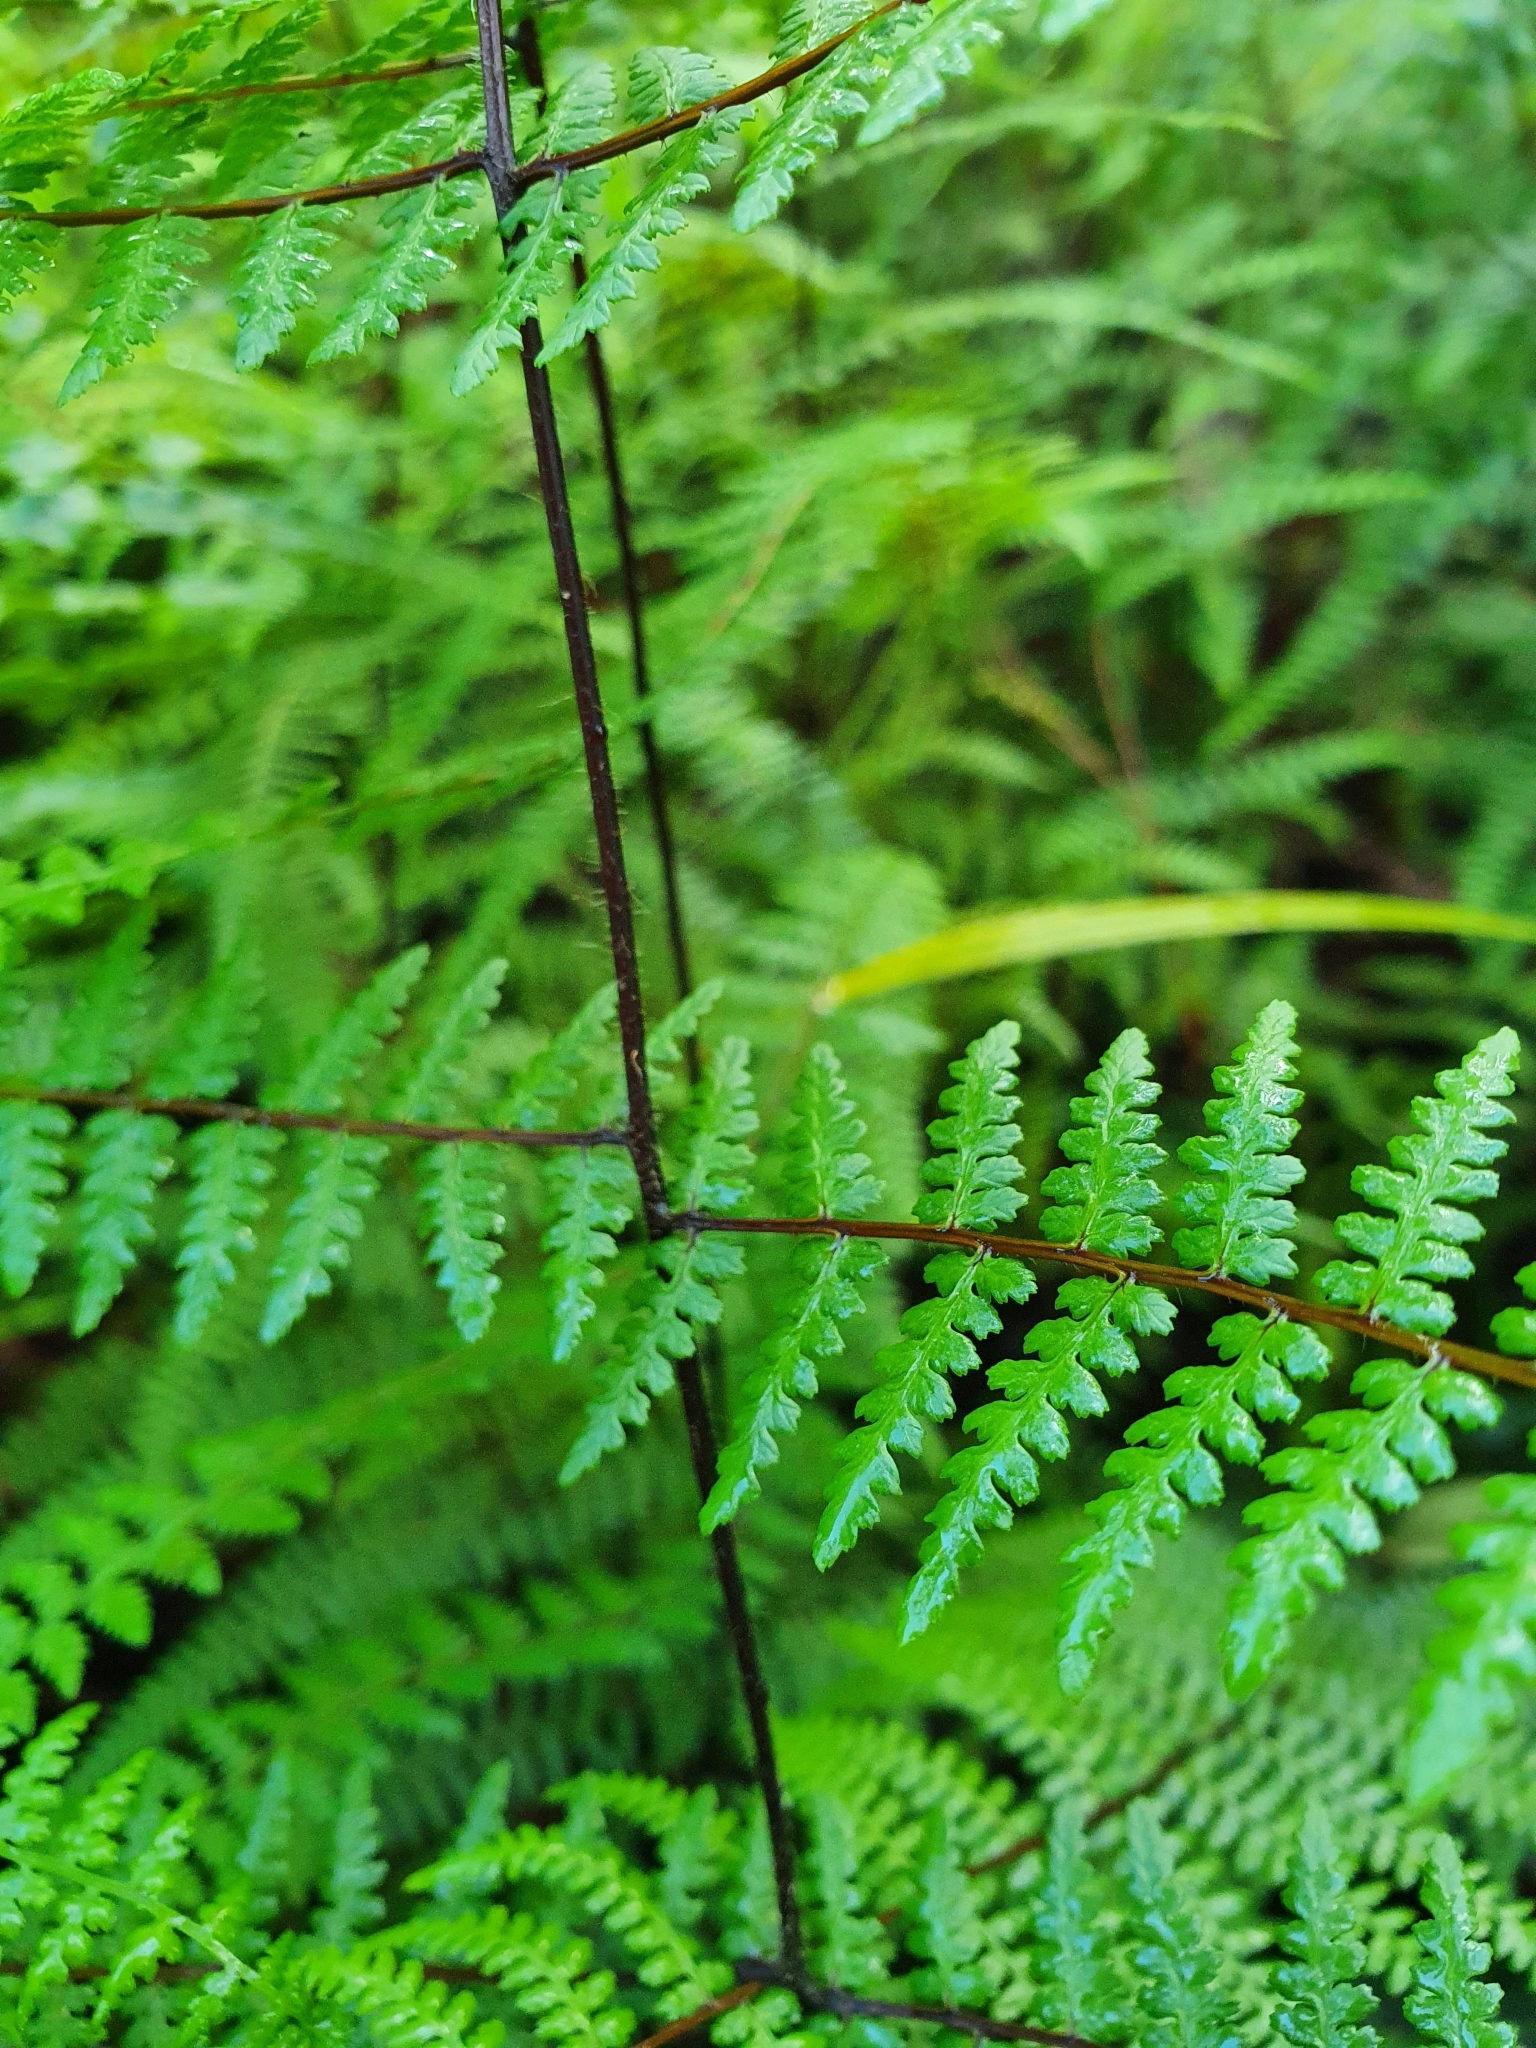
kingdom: Plantae
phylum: Tracheophyta
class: Polypodiopsida
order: Polypodiales
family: Dennstaedtiaceae
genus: Hiya
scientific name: Hiya distans
